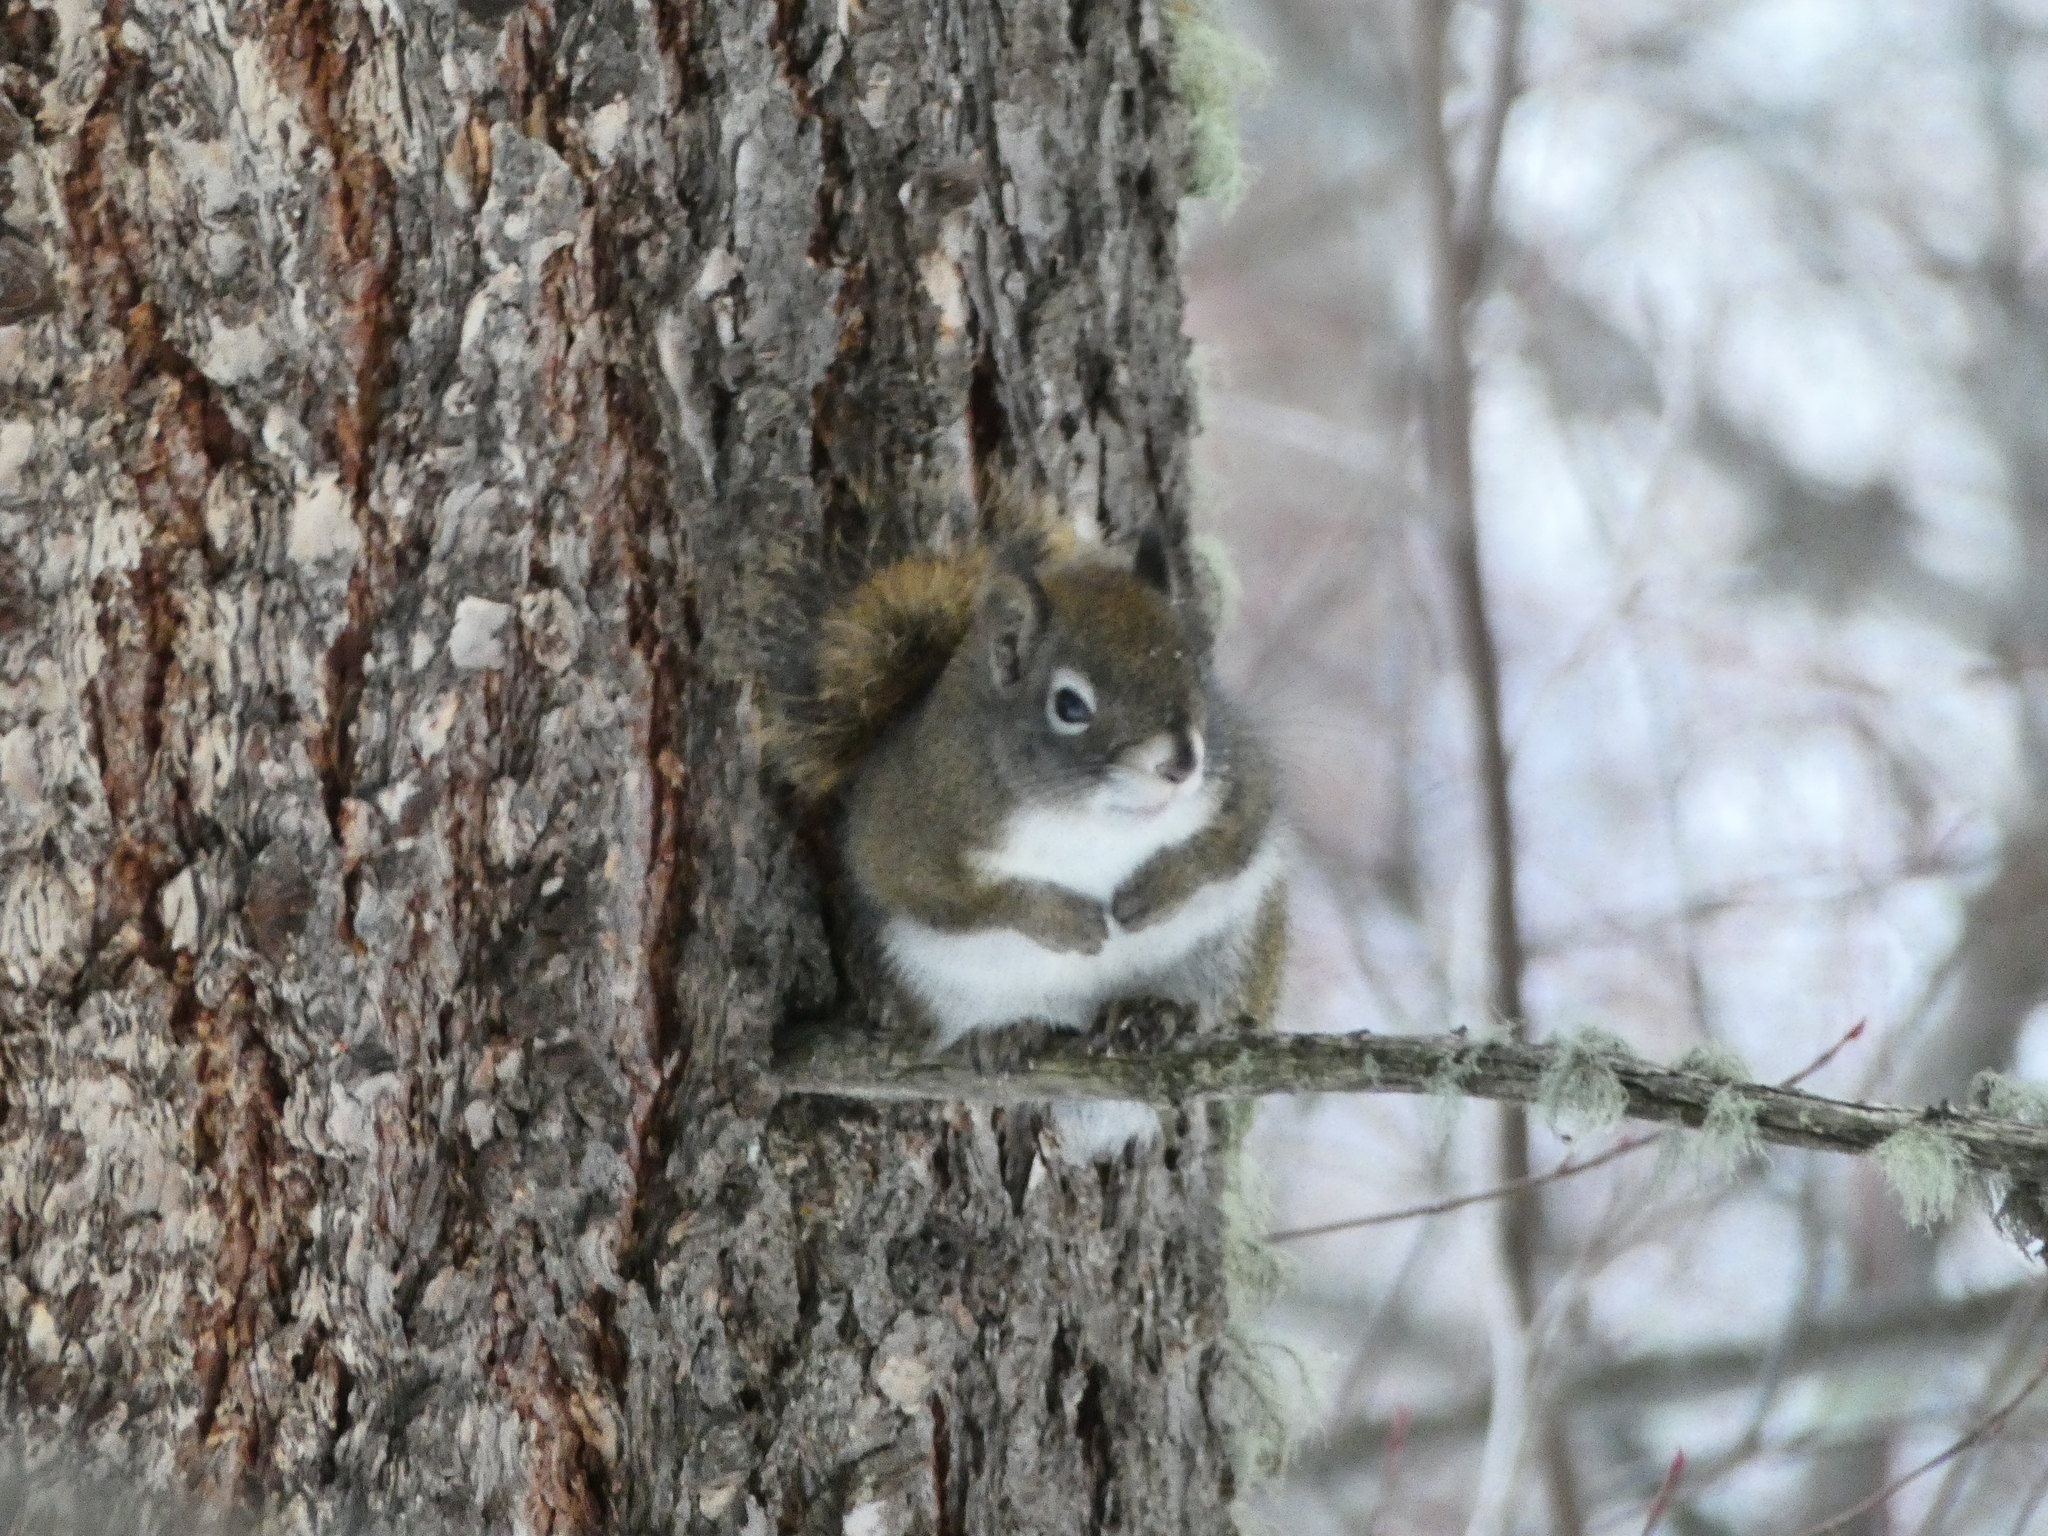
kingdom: Animalia
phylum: Chordata
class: Mammalia
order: Rodentia
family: Sciuridae
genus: Tamiasciurus
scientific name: Tamiasciurus hudsonicus
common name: Red squirrel
